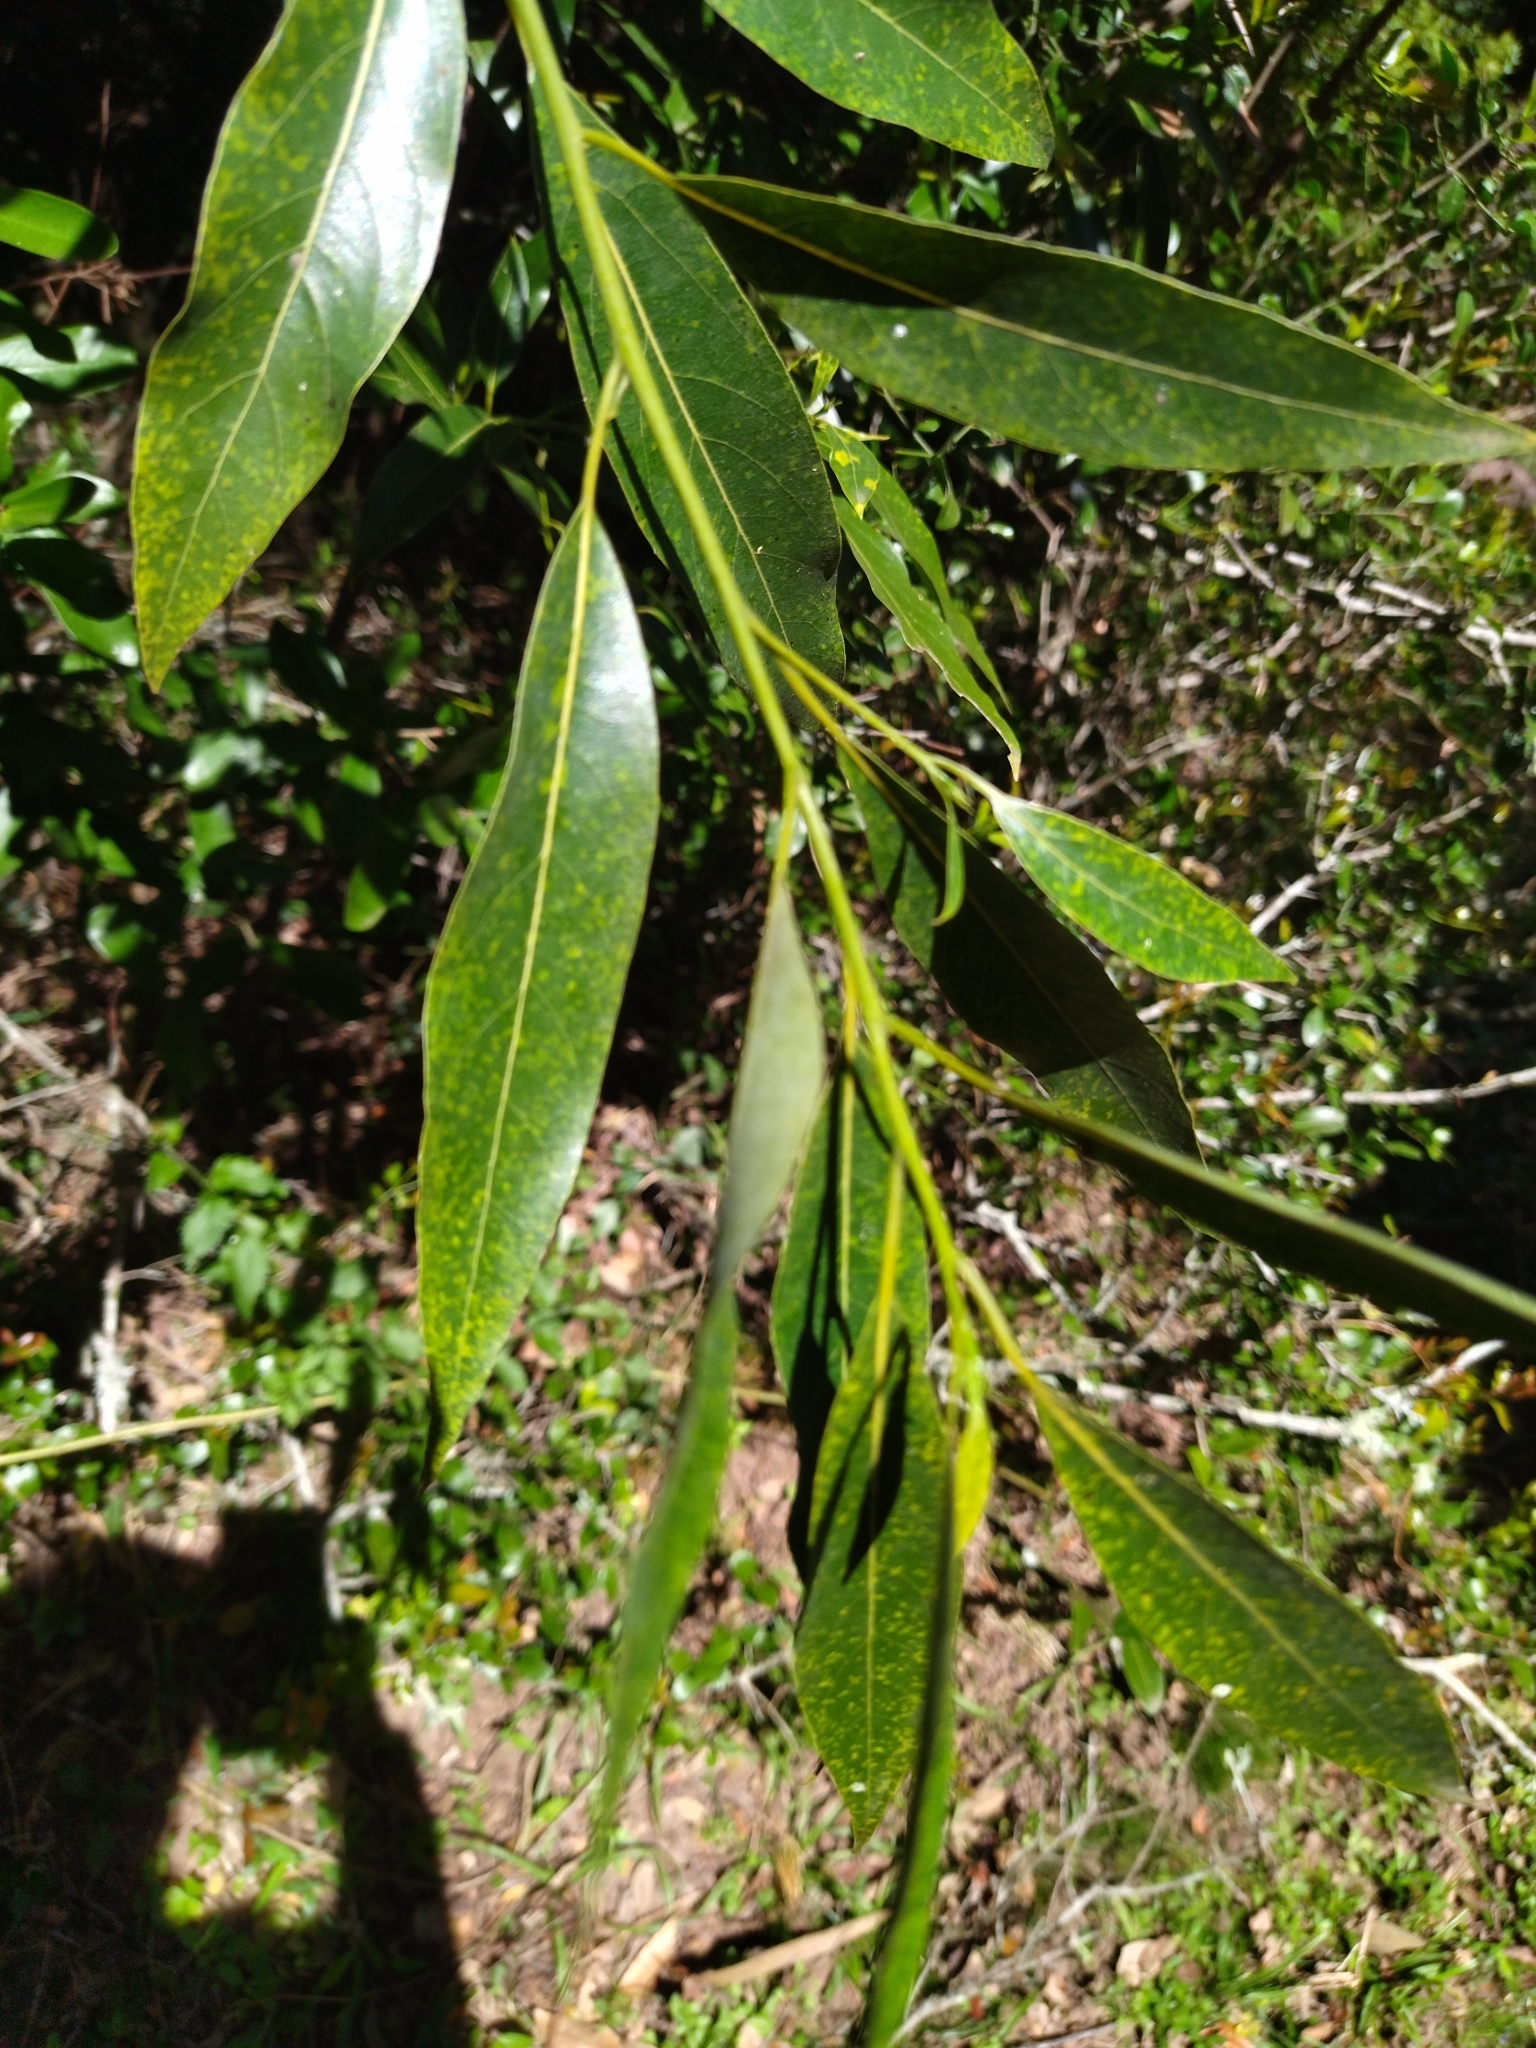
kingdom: Plantae
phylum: Tracheophyta
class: Magnoliopsida
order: Laurales
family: Lauraceae
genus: Ocotea
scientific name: Ocotea acutifolia
